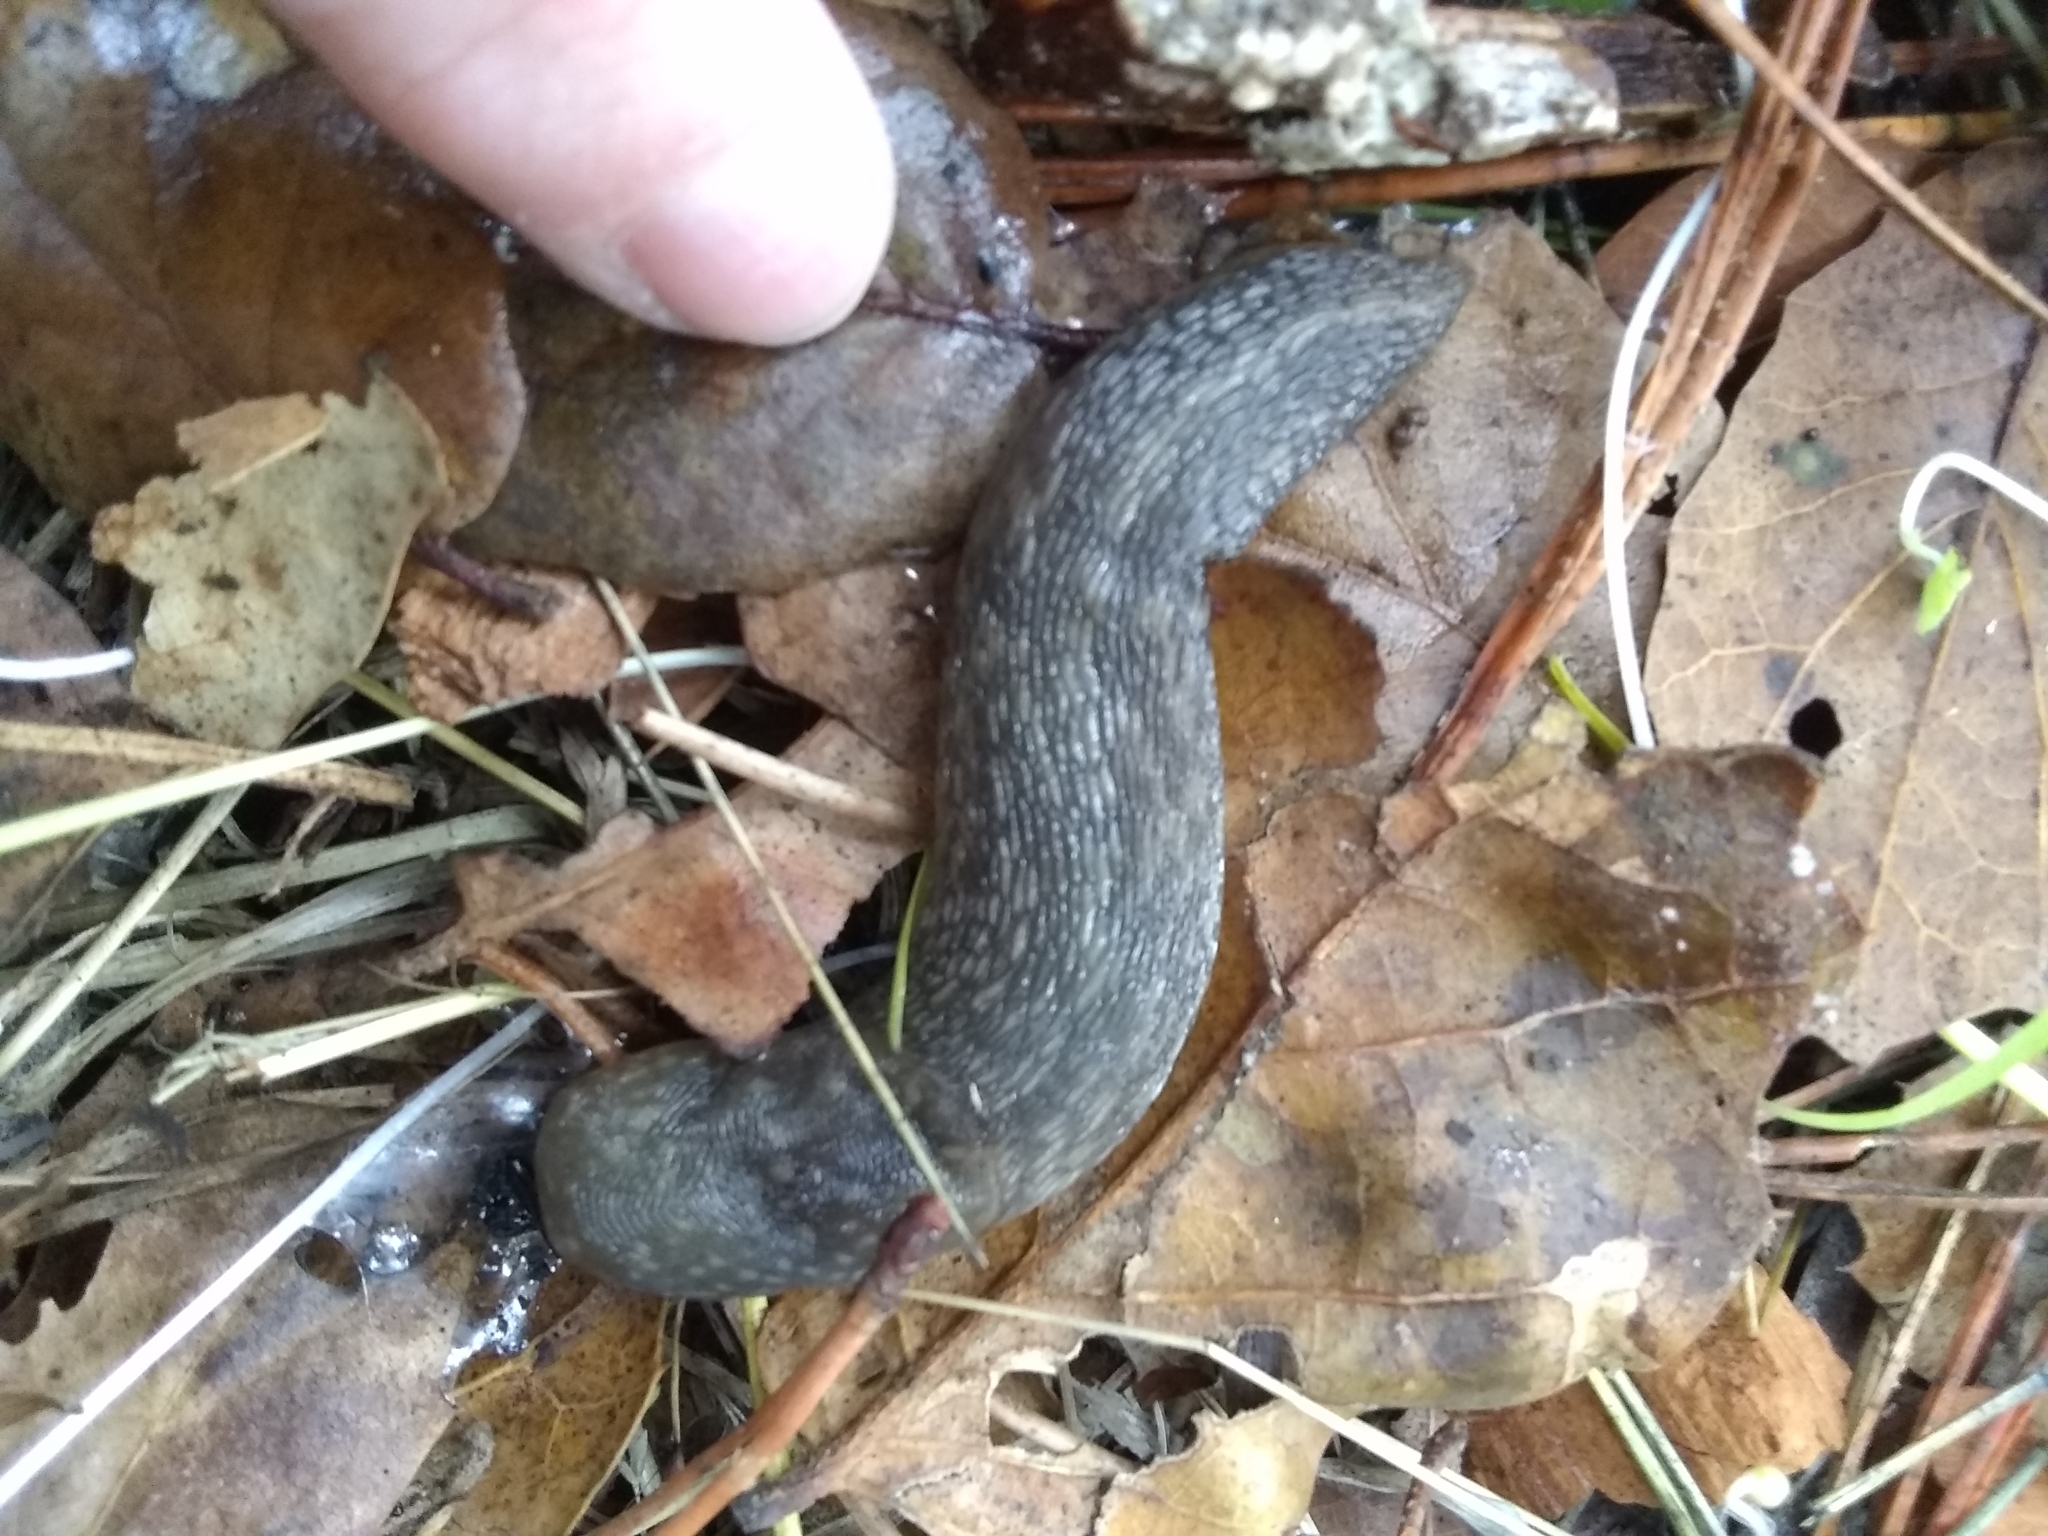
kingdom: Animalia
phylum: Mollusca
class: Gastropoda
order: Stylommatophora
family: Limacidae
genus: Limacus
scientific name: Limacus flavus
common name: Yellow gardenslug
